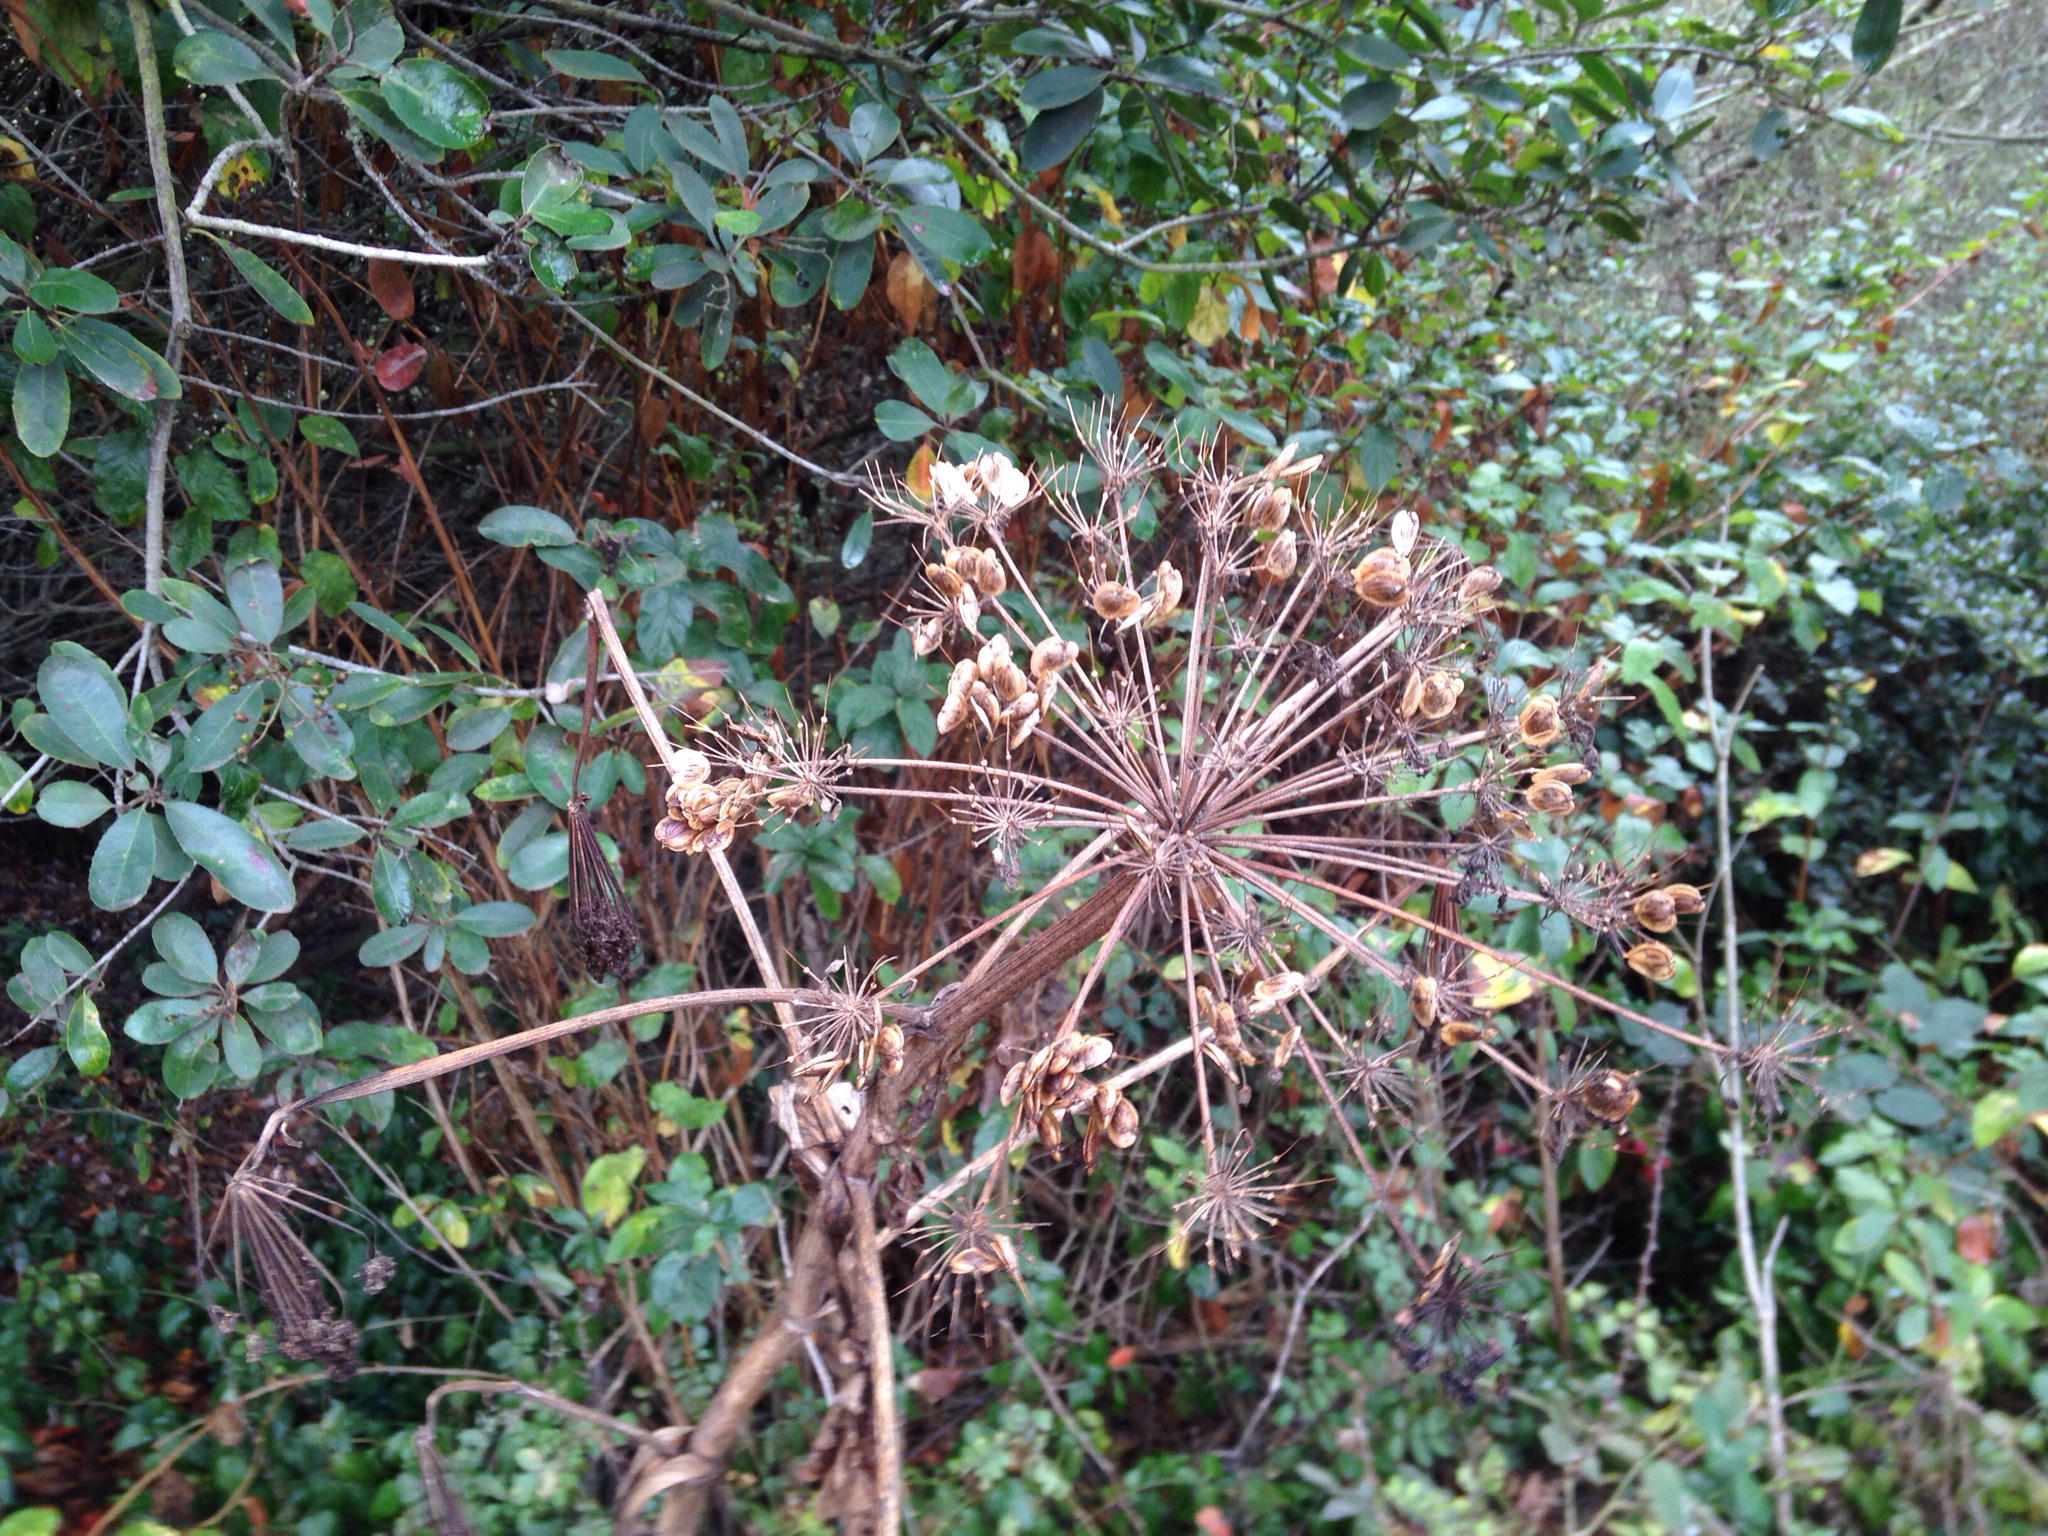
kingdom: Plantae
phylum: Tracheophyta
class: Magnoliopsida
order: Apiales
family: Apiaceae
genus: Heracleum
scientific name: Heracleum maximum
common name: American cow parsnip
